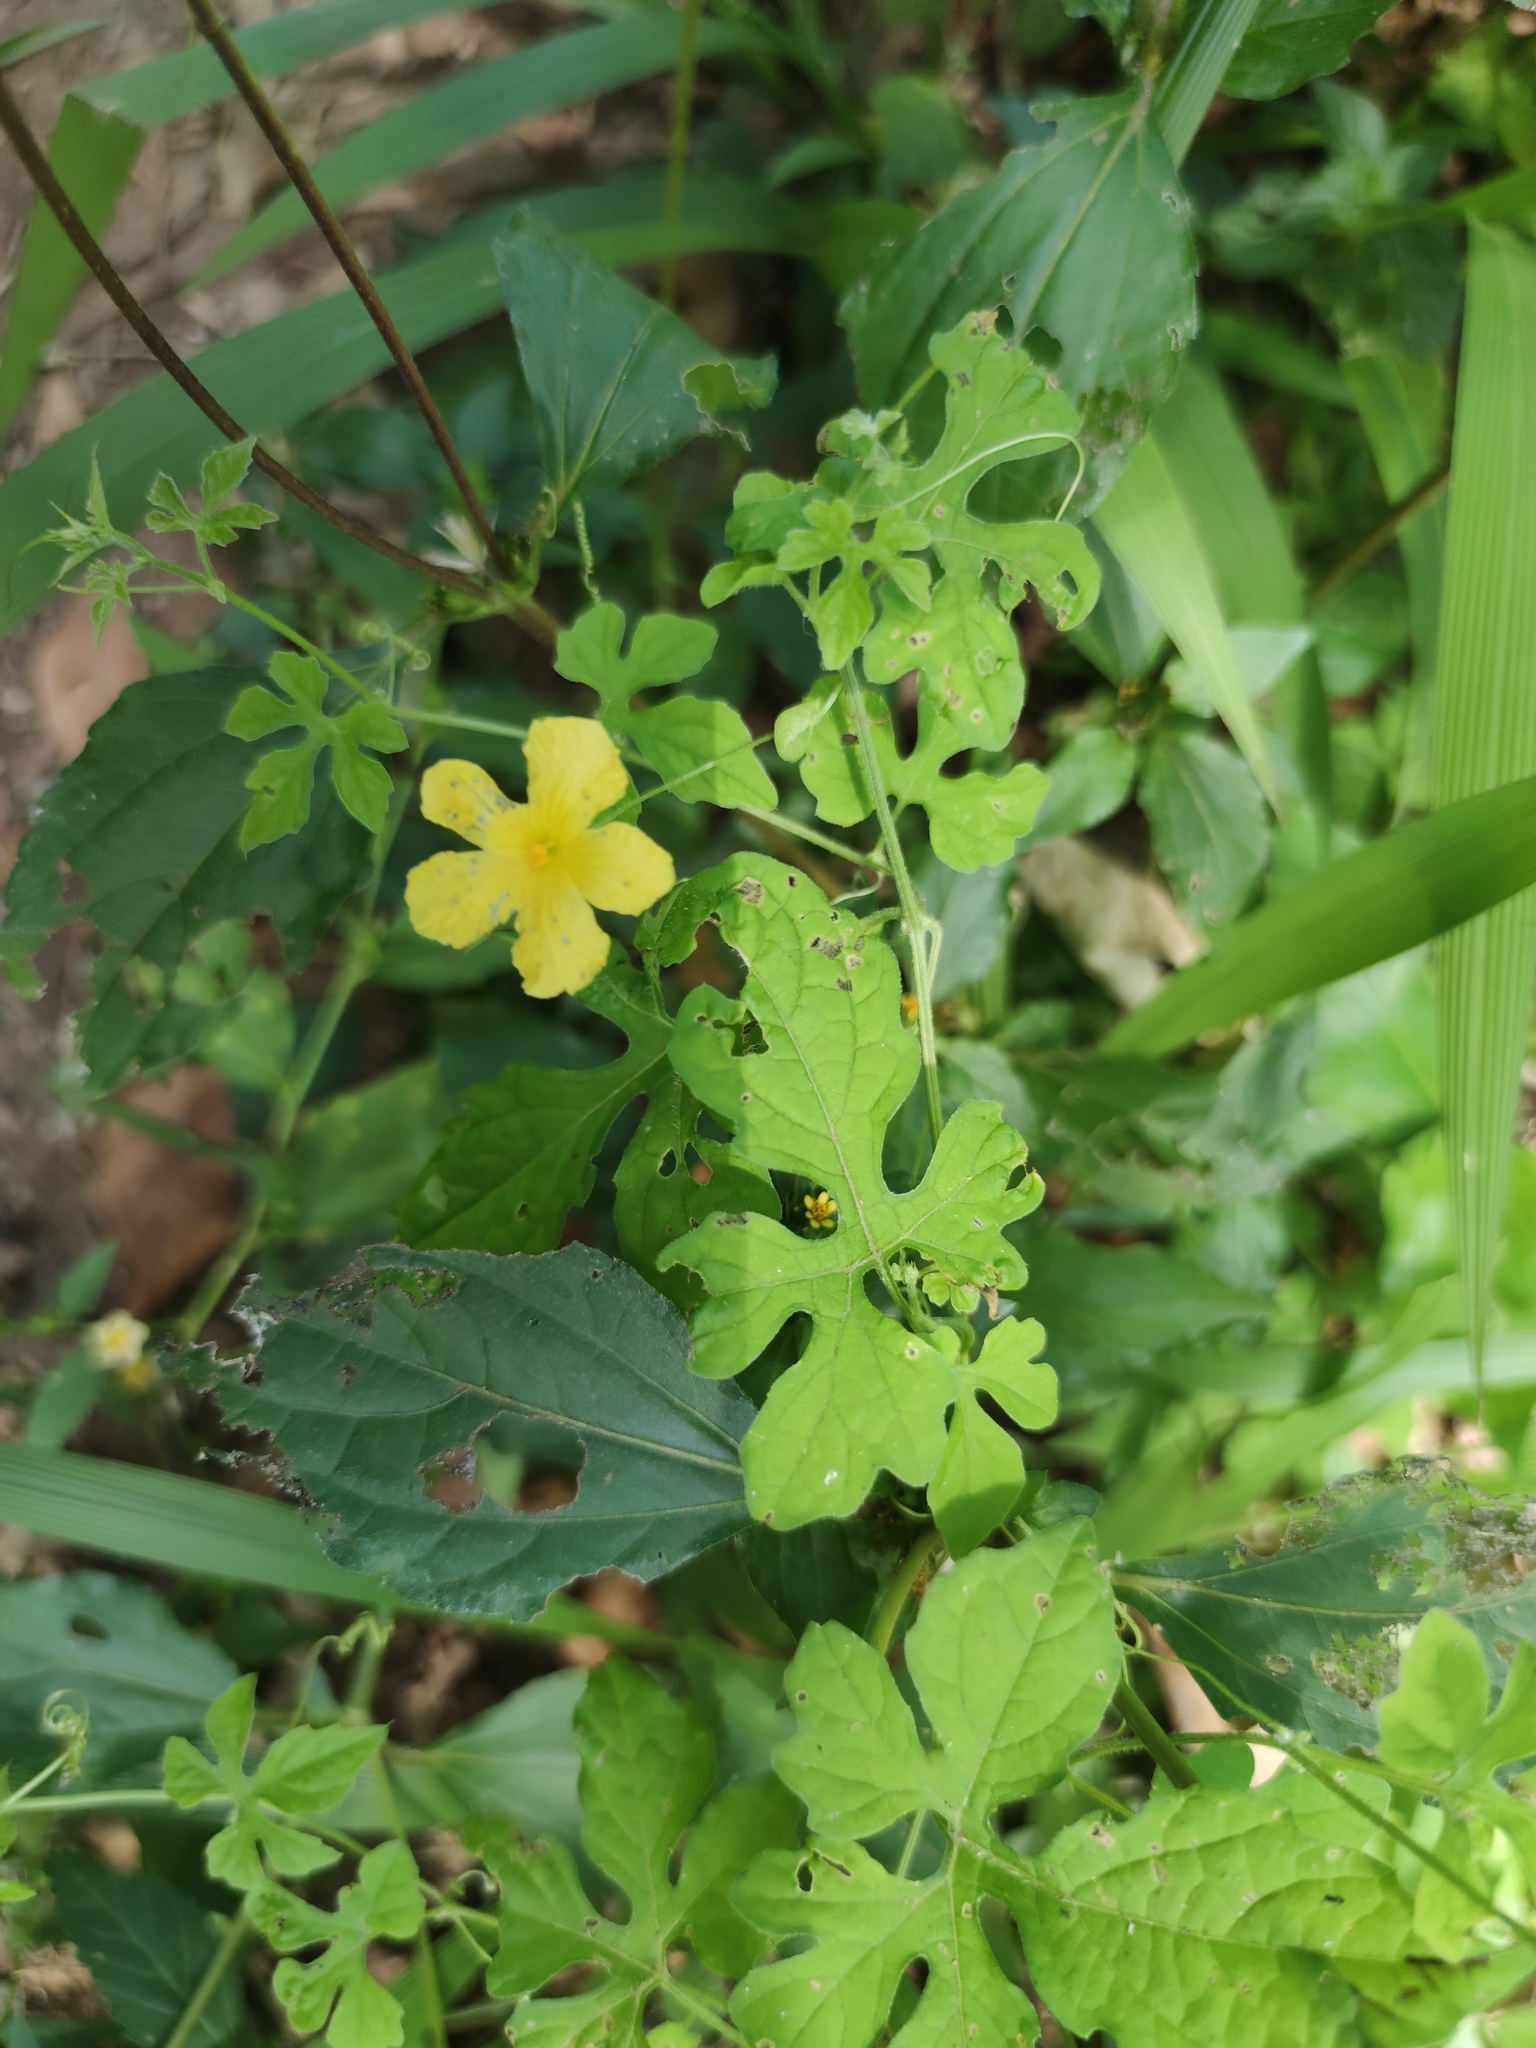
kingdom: Plantae
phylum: Tracheophyta
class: Magnoliopsida
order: Cucurbitales
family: Cucurbitaceae
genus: Momordica
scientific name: Momordica charantia
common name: Balsampear
